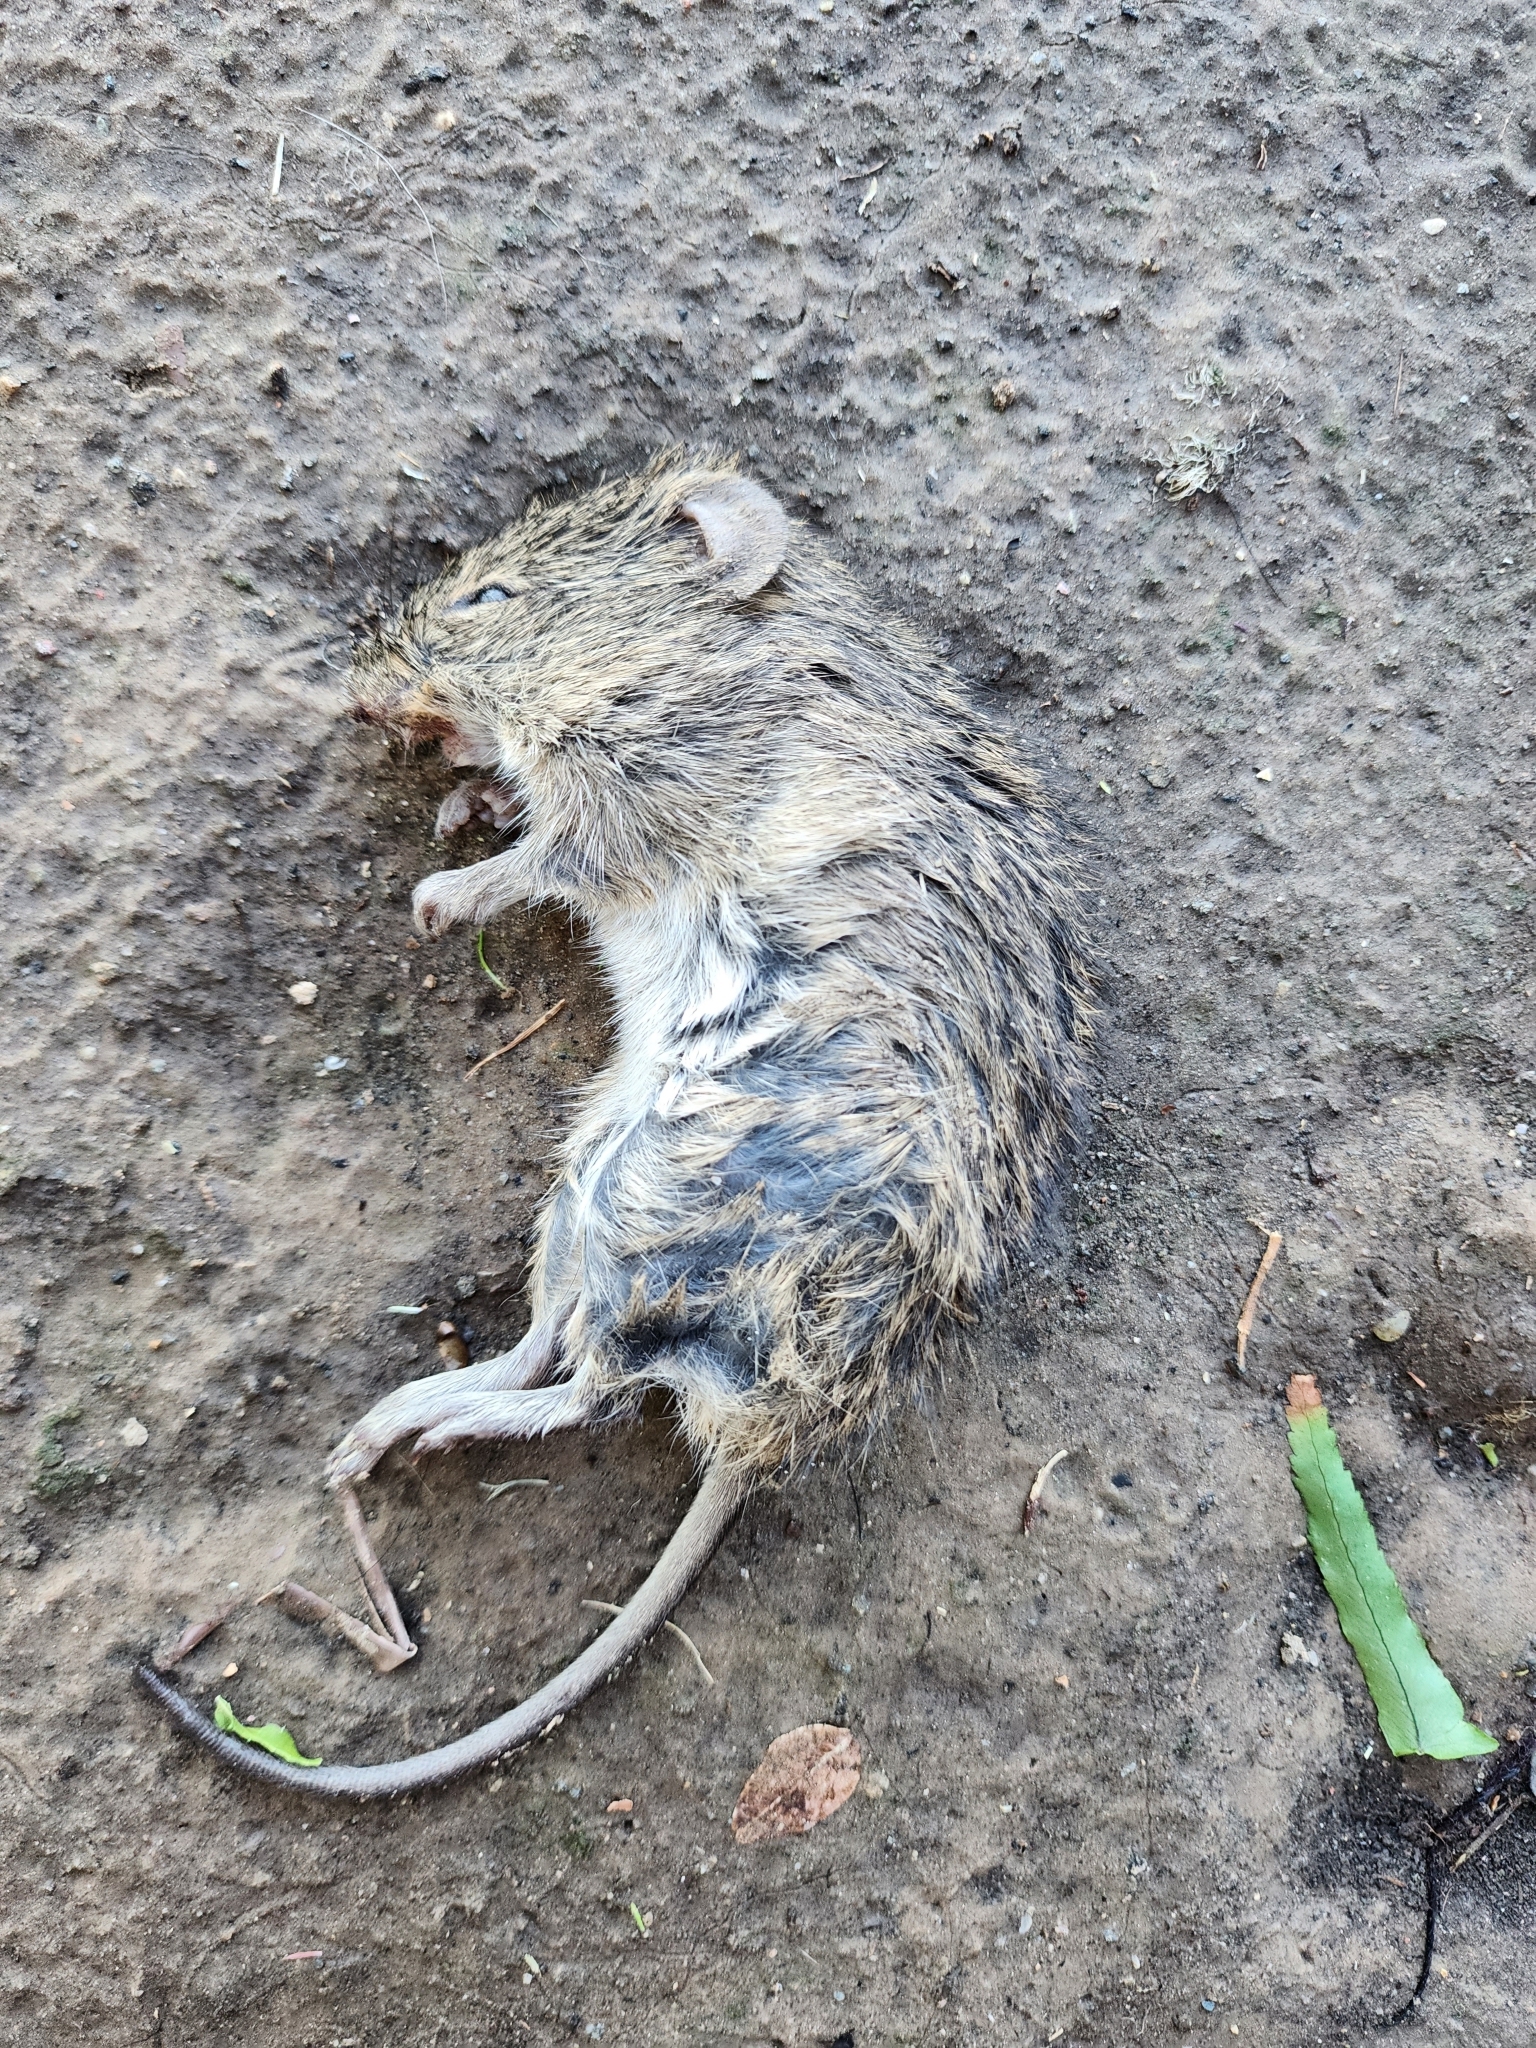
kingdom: Animalia
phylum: Chordata
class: Mammalia
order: Rodentia
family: Cricetidae
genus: Sigmodon
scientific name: Sigmodon hispidus
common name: Hispid cotton rat
